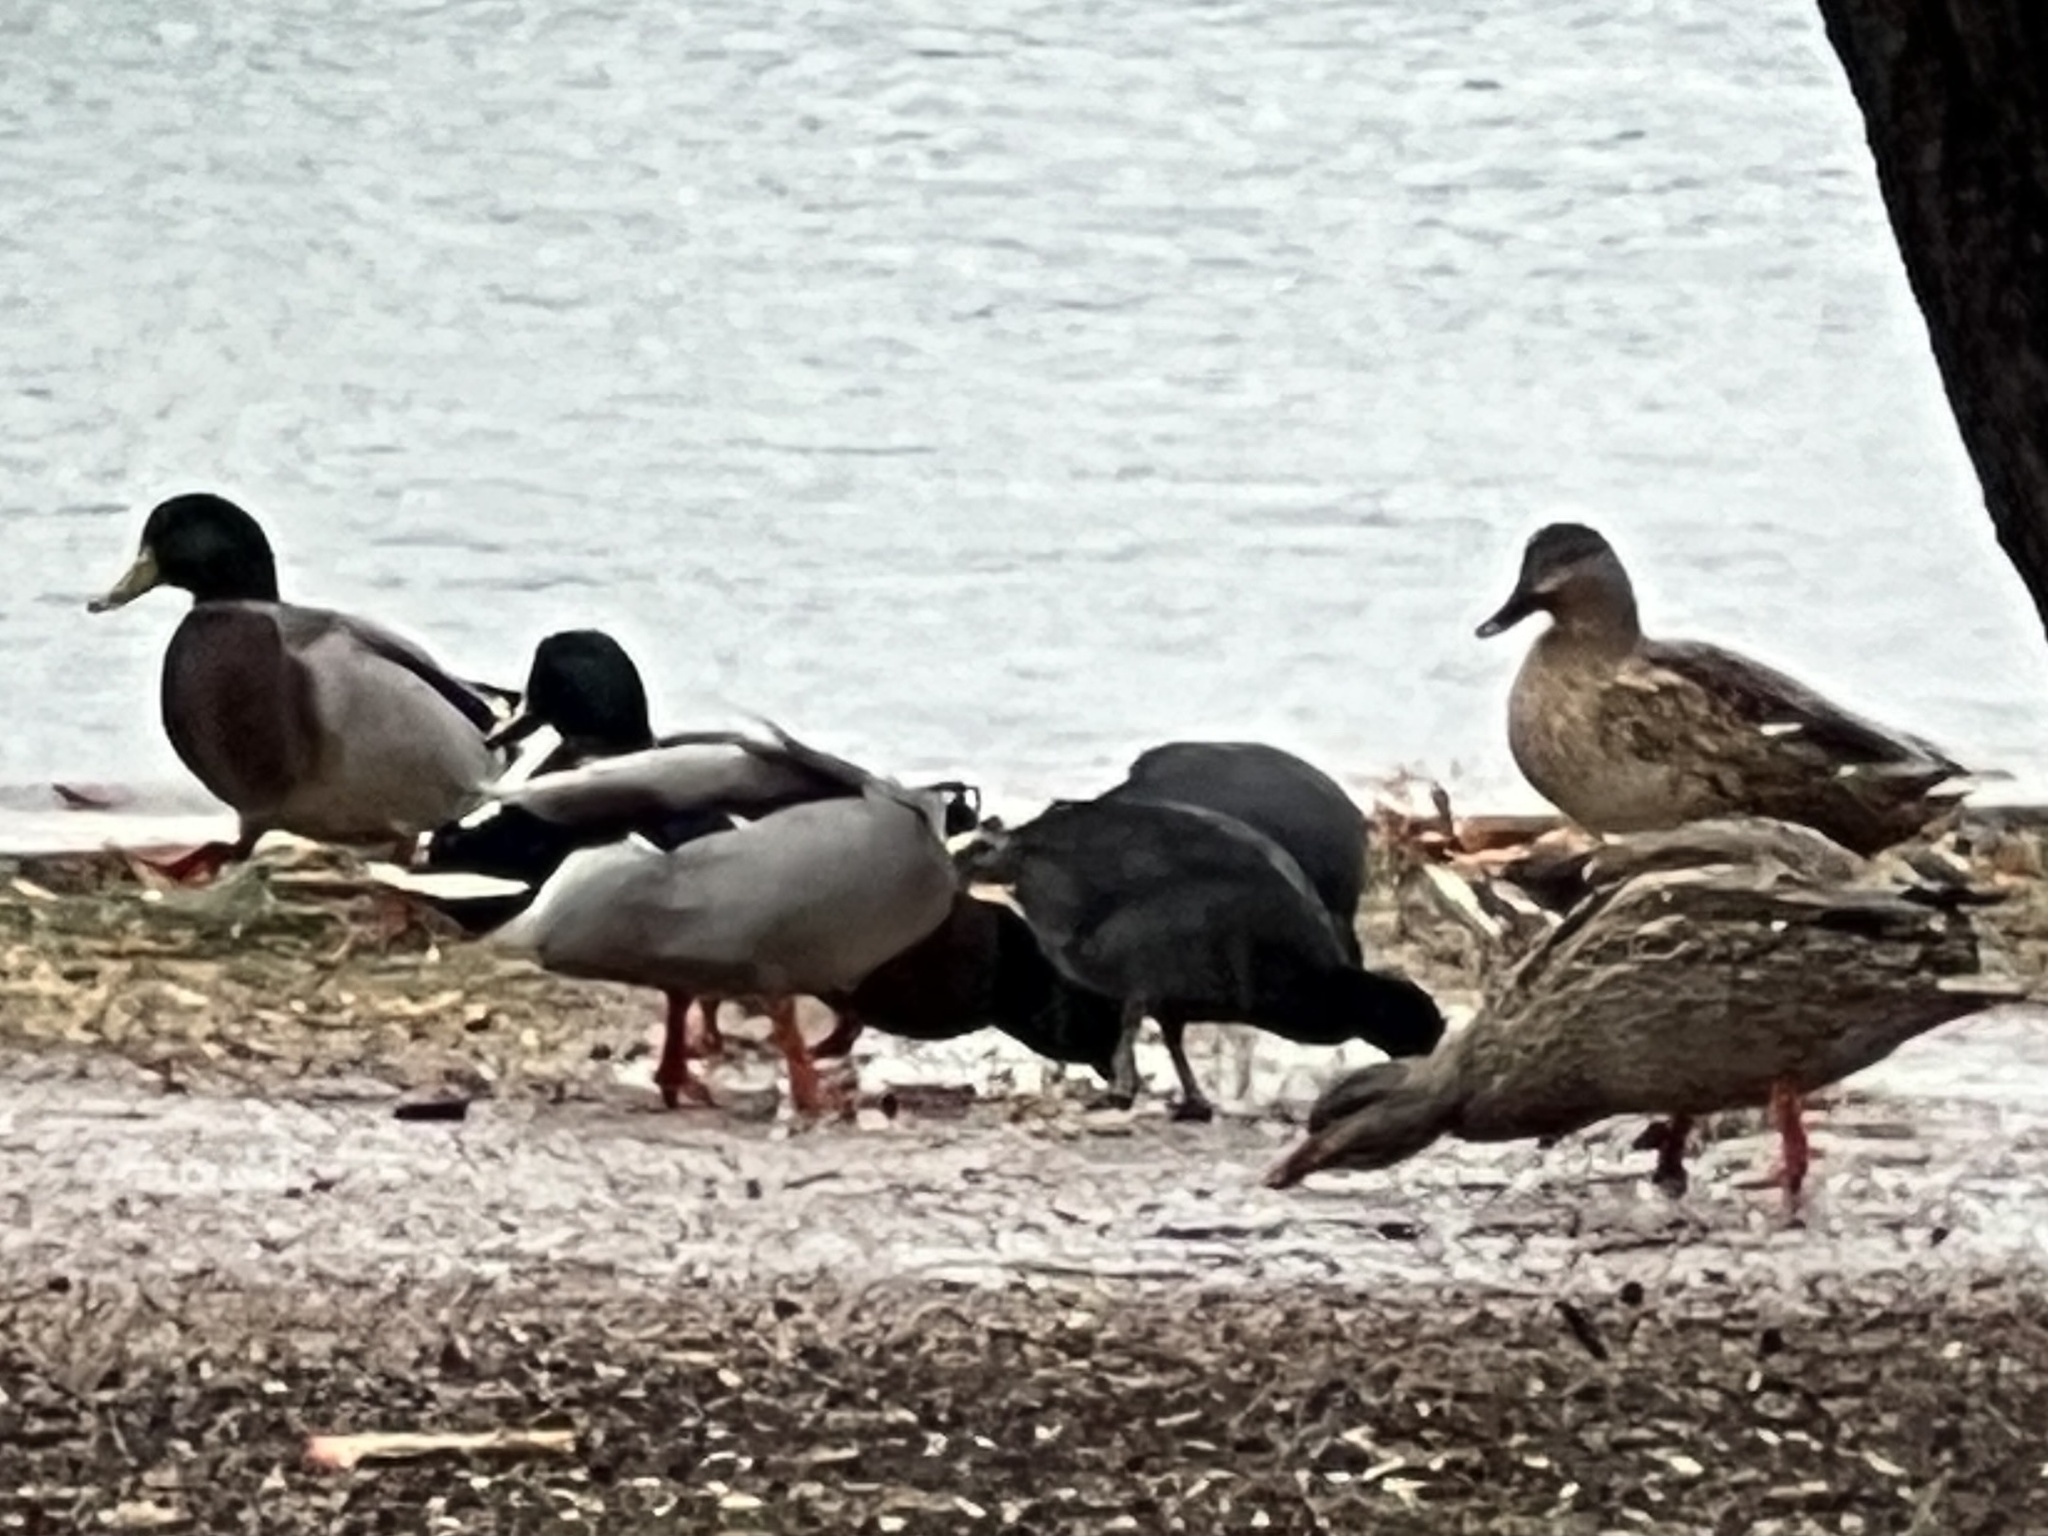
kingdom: Animalia
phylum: Chordata
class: Aves
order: Anseriformes
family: Anatidae
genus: Anas
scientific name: Anas platyrhynchos
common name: Mallard
